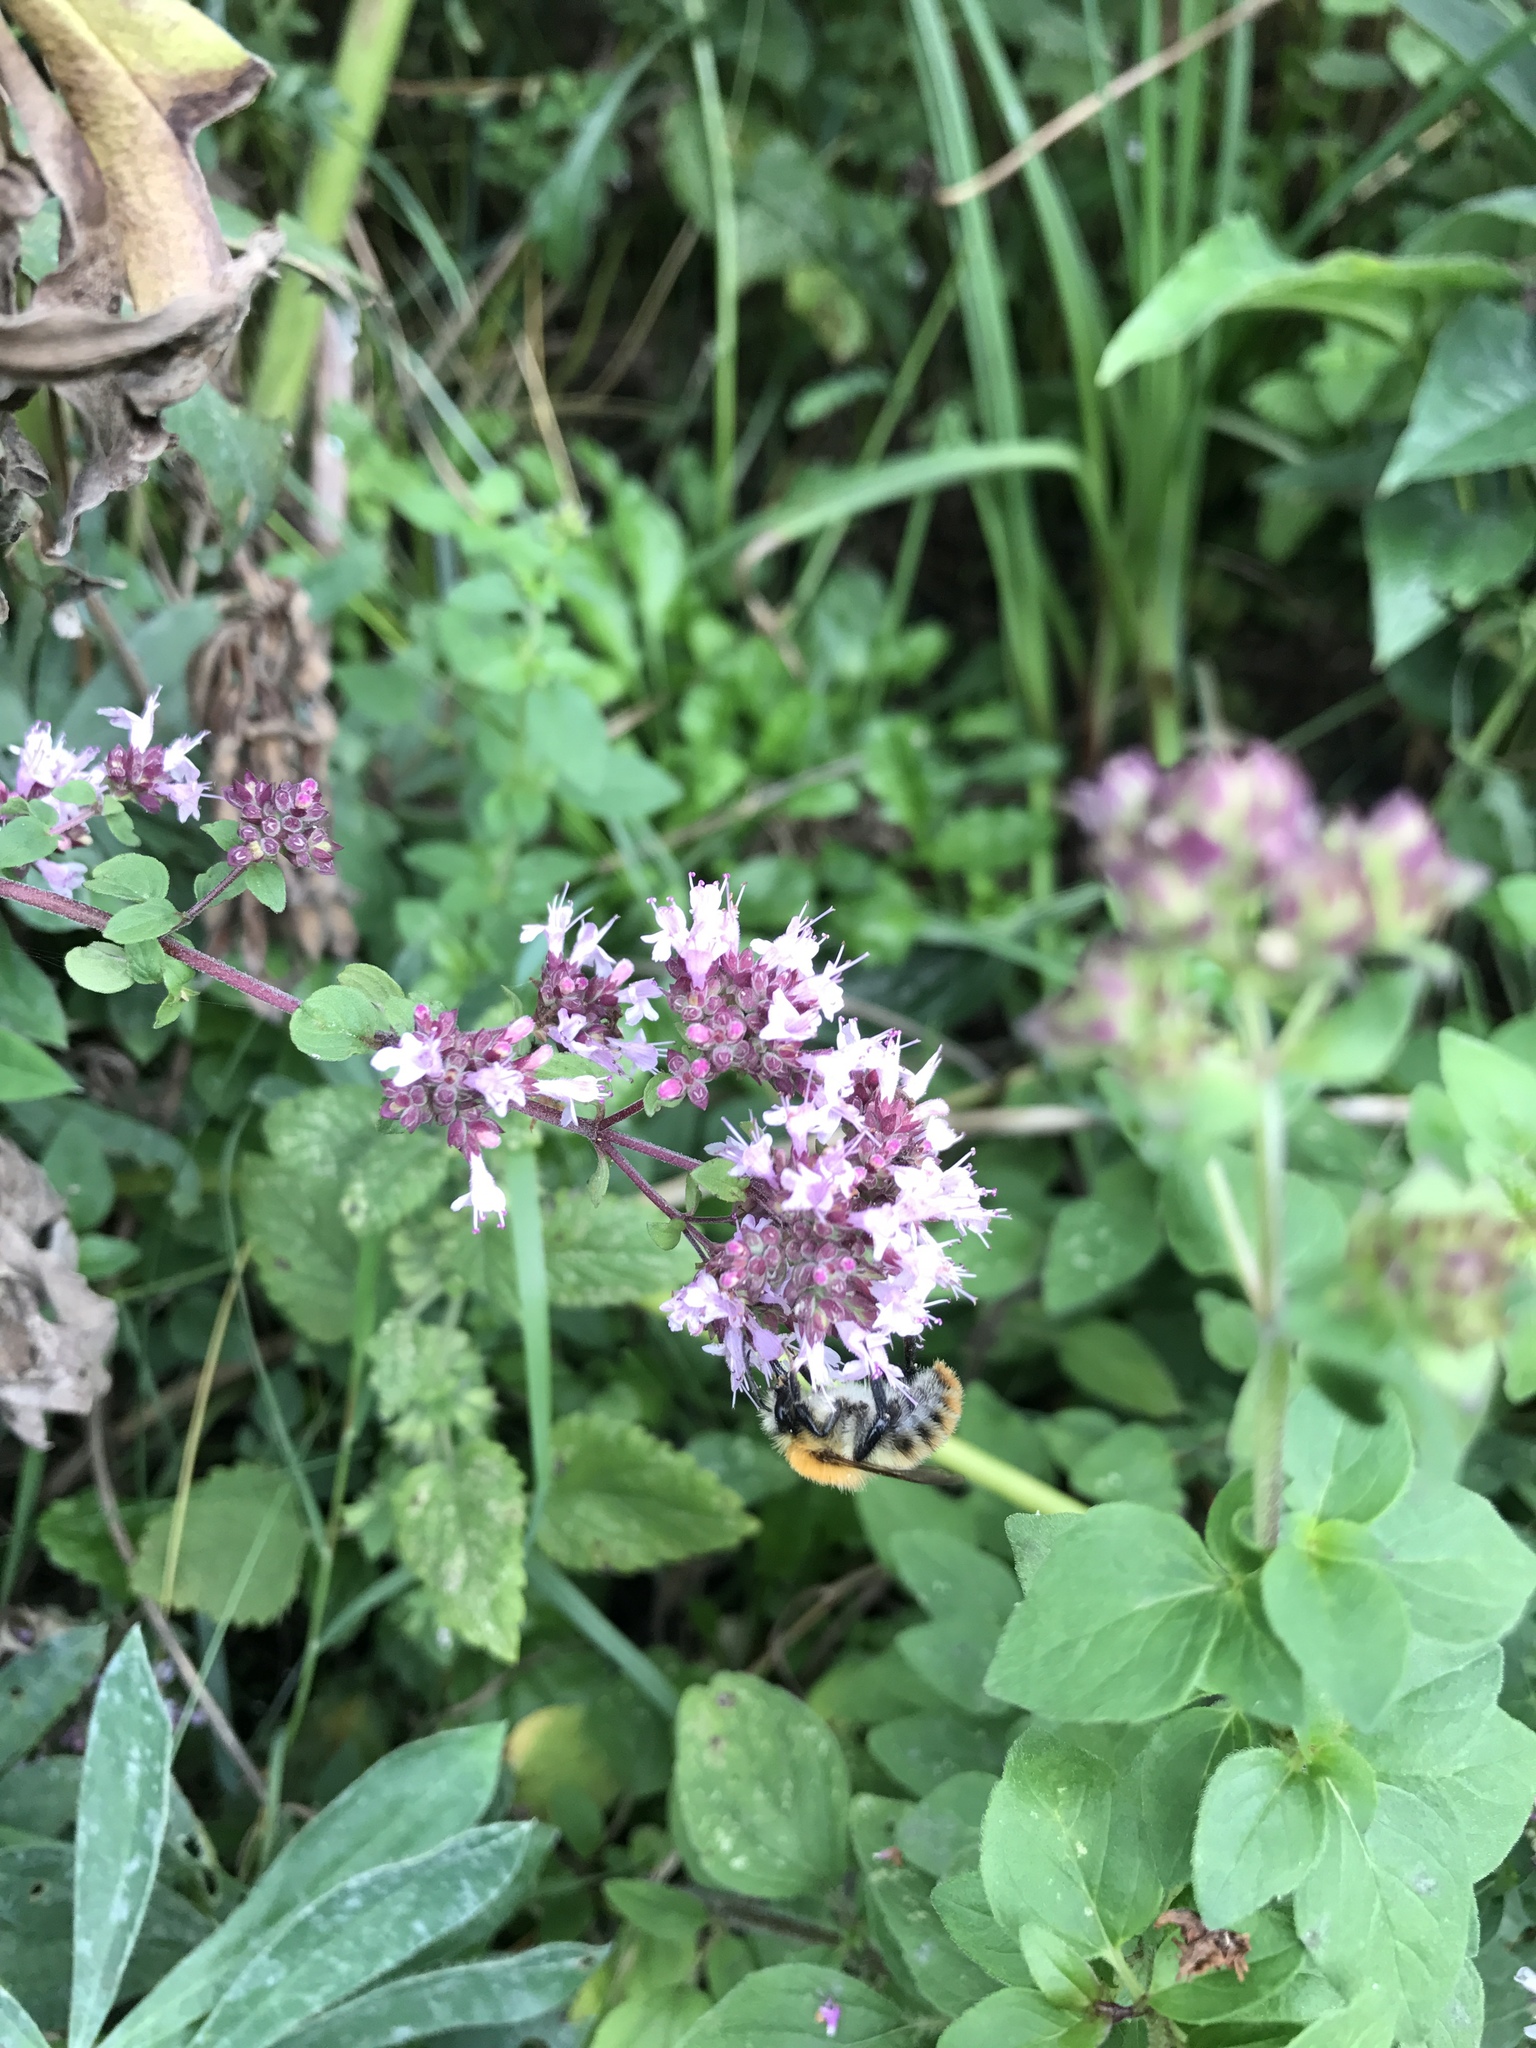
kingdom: Animalia
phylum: Arthropoda
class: Insecta
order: Hymenoptera
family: Apidae
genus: Bombus
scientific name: Bombus pascuorum
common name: Common carder bee
